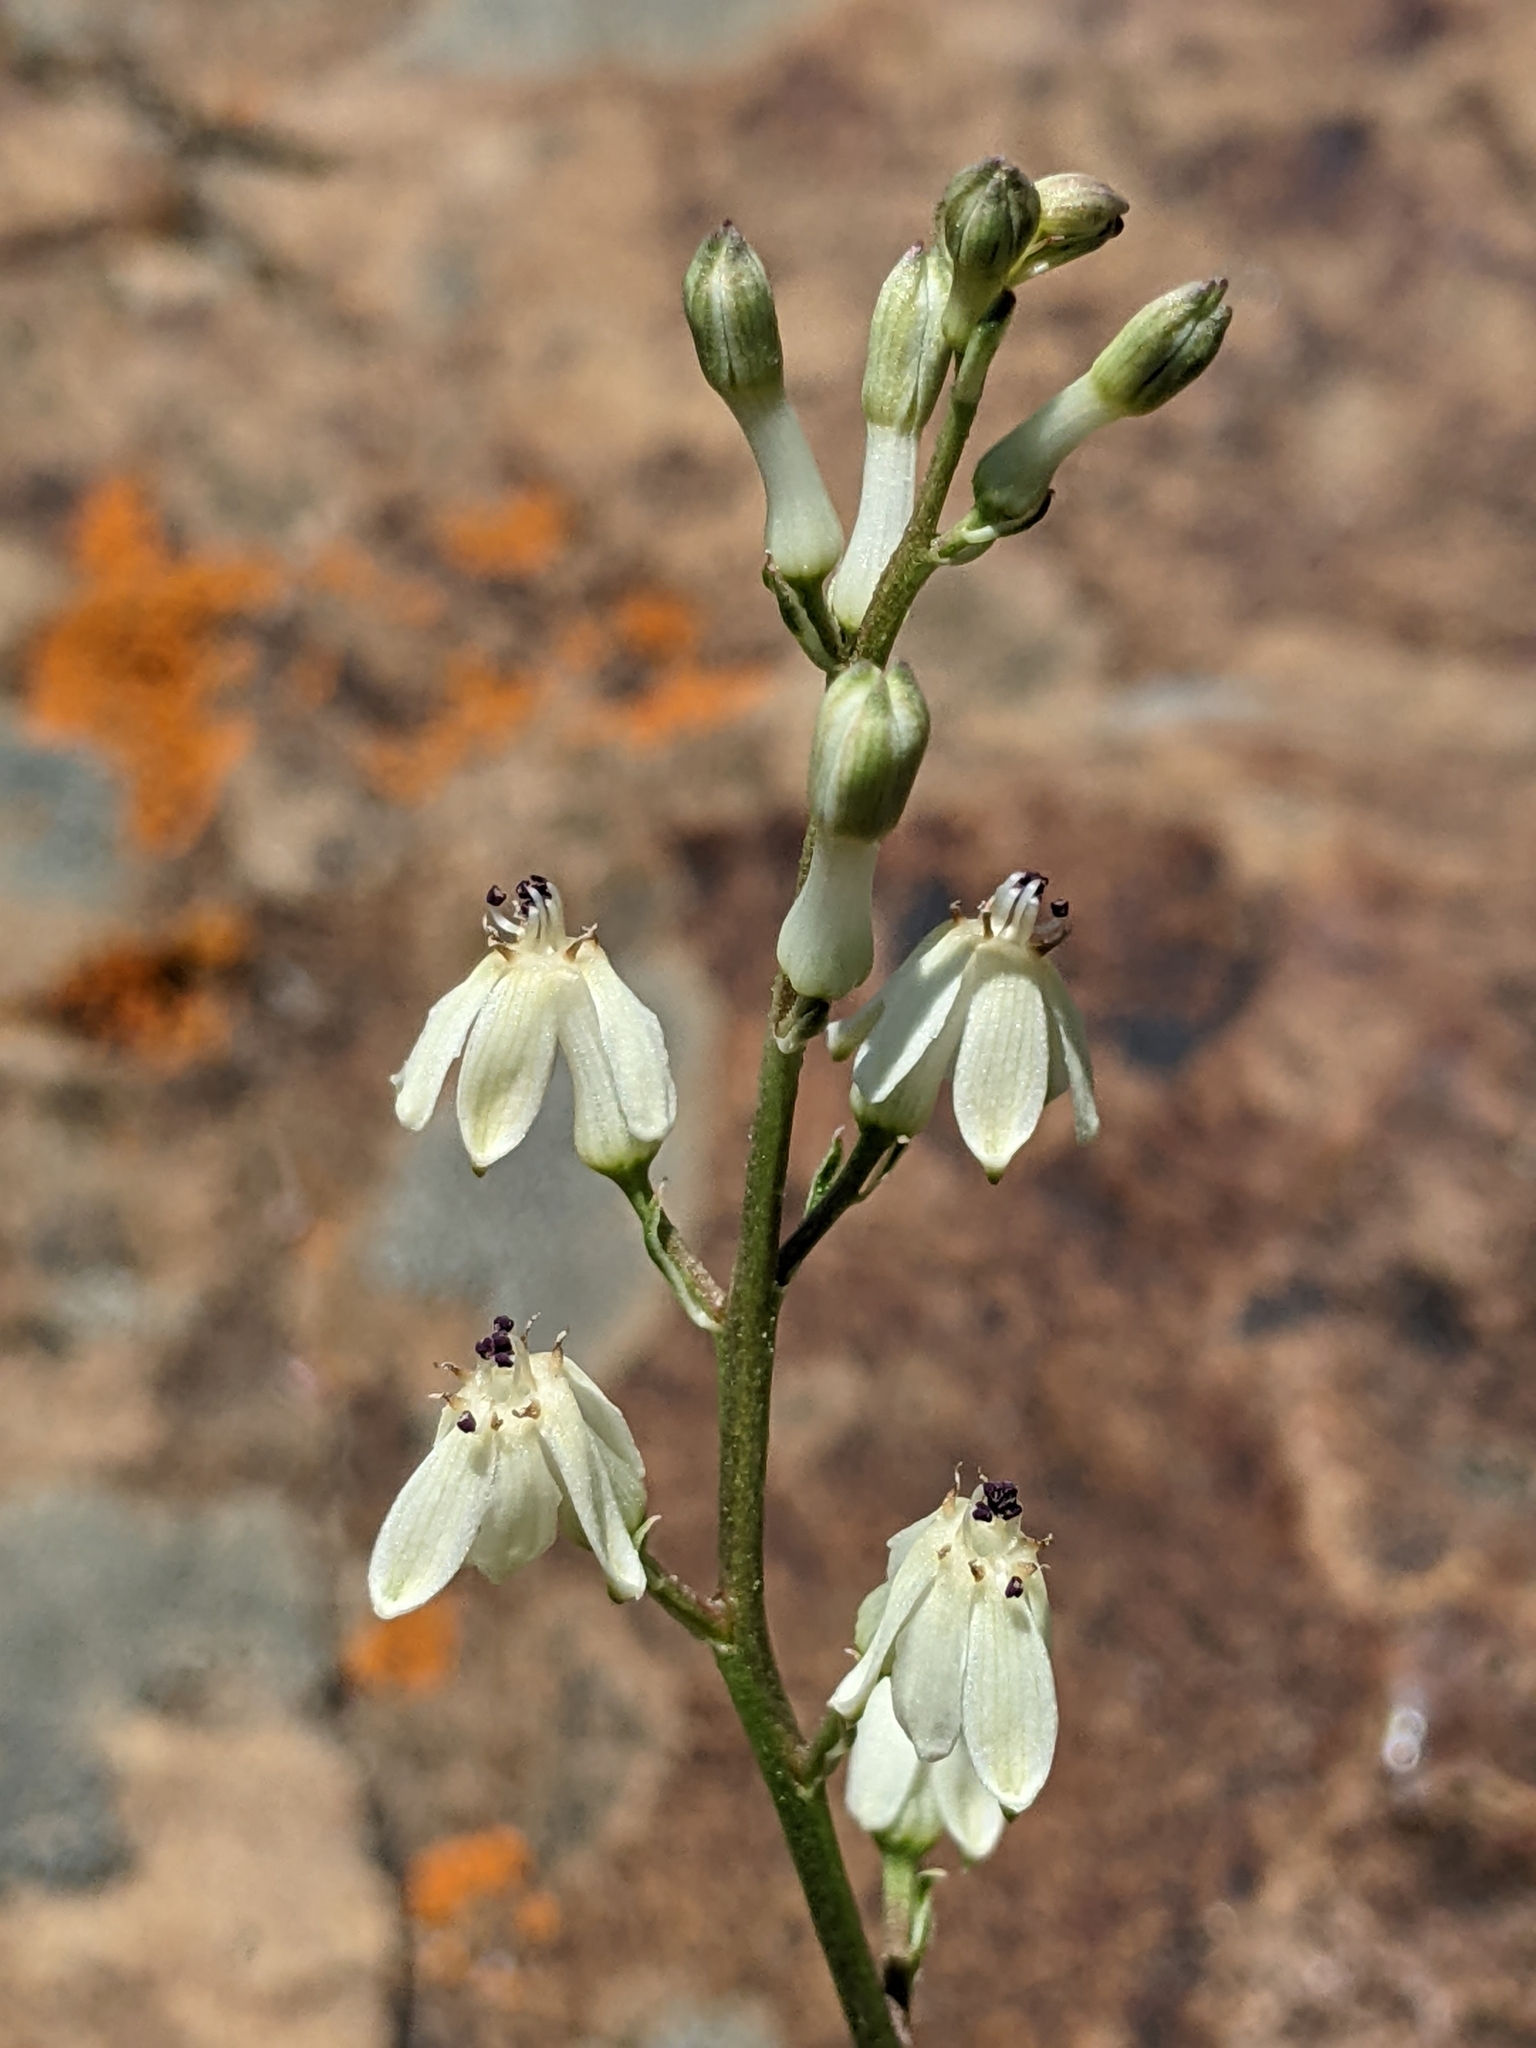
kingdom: Plantae
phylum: Tracheophyta
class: Liliopsida
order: Asparagales
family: Tecophilaeaceae
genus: Odontostomum
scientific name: Odontostomum hartwegii
